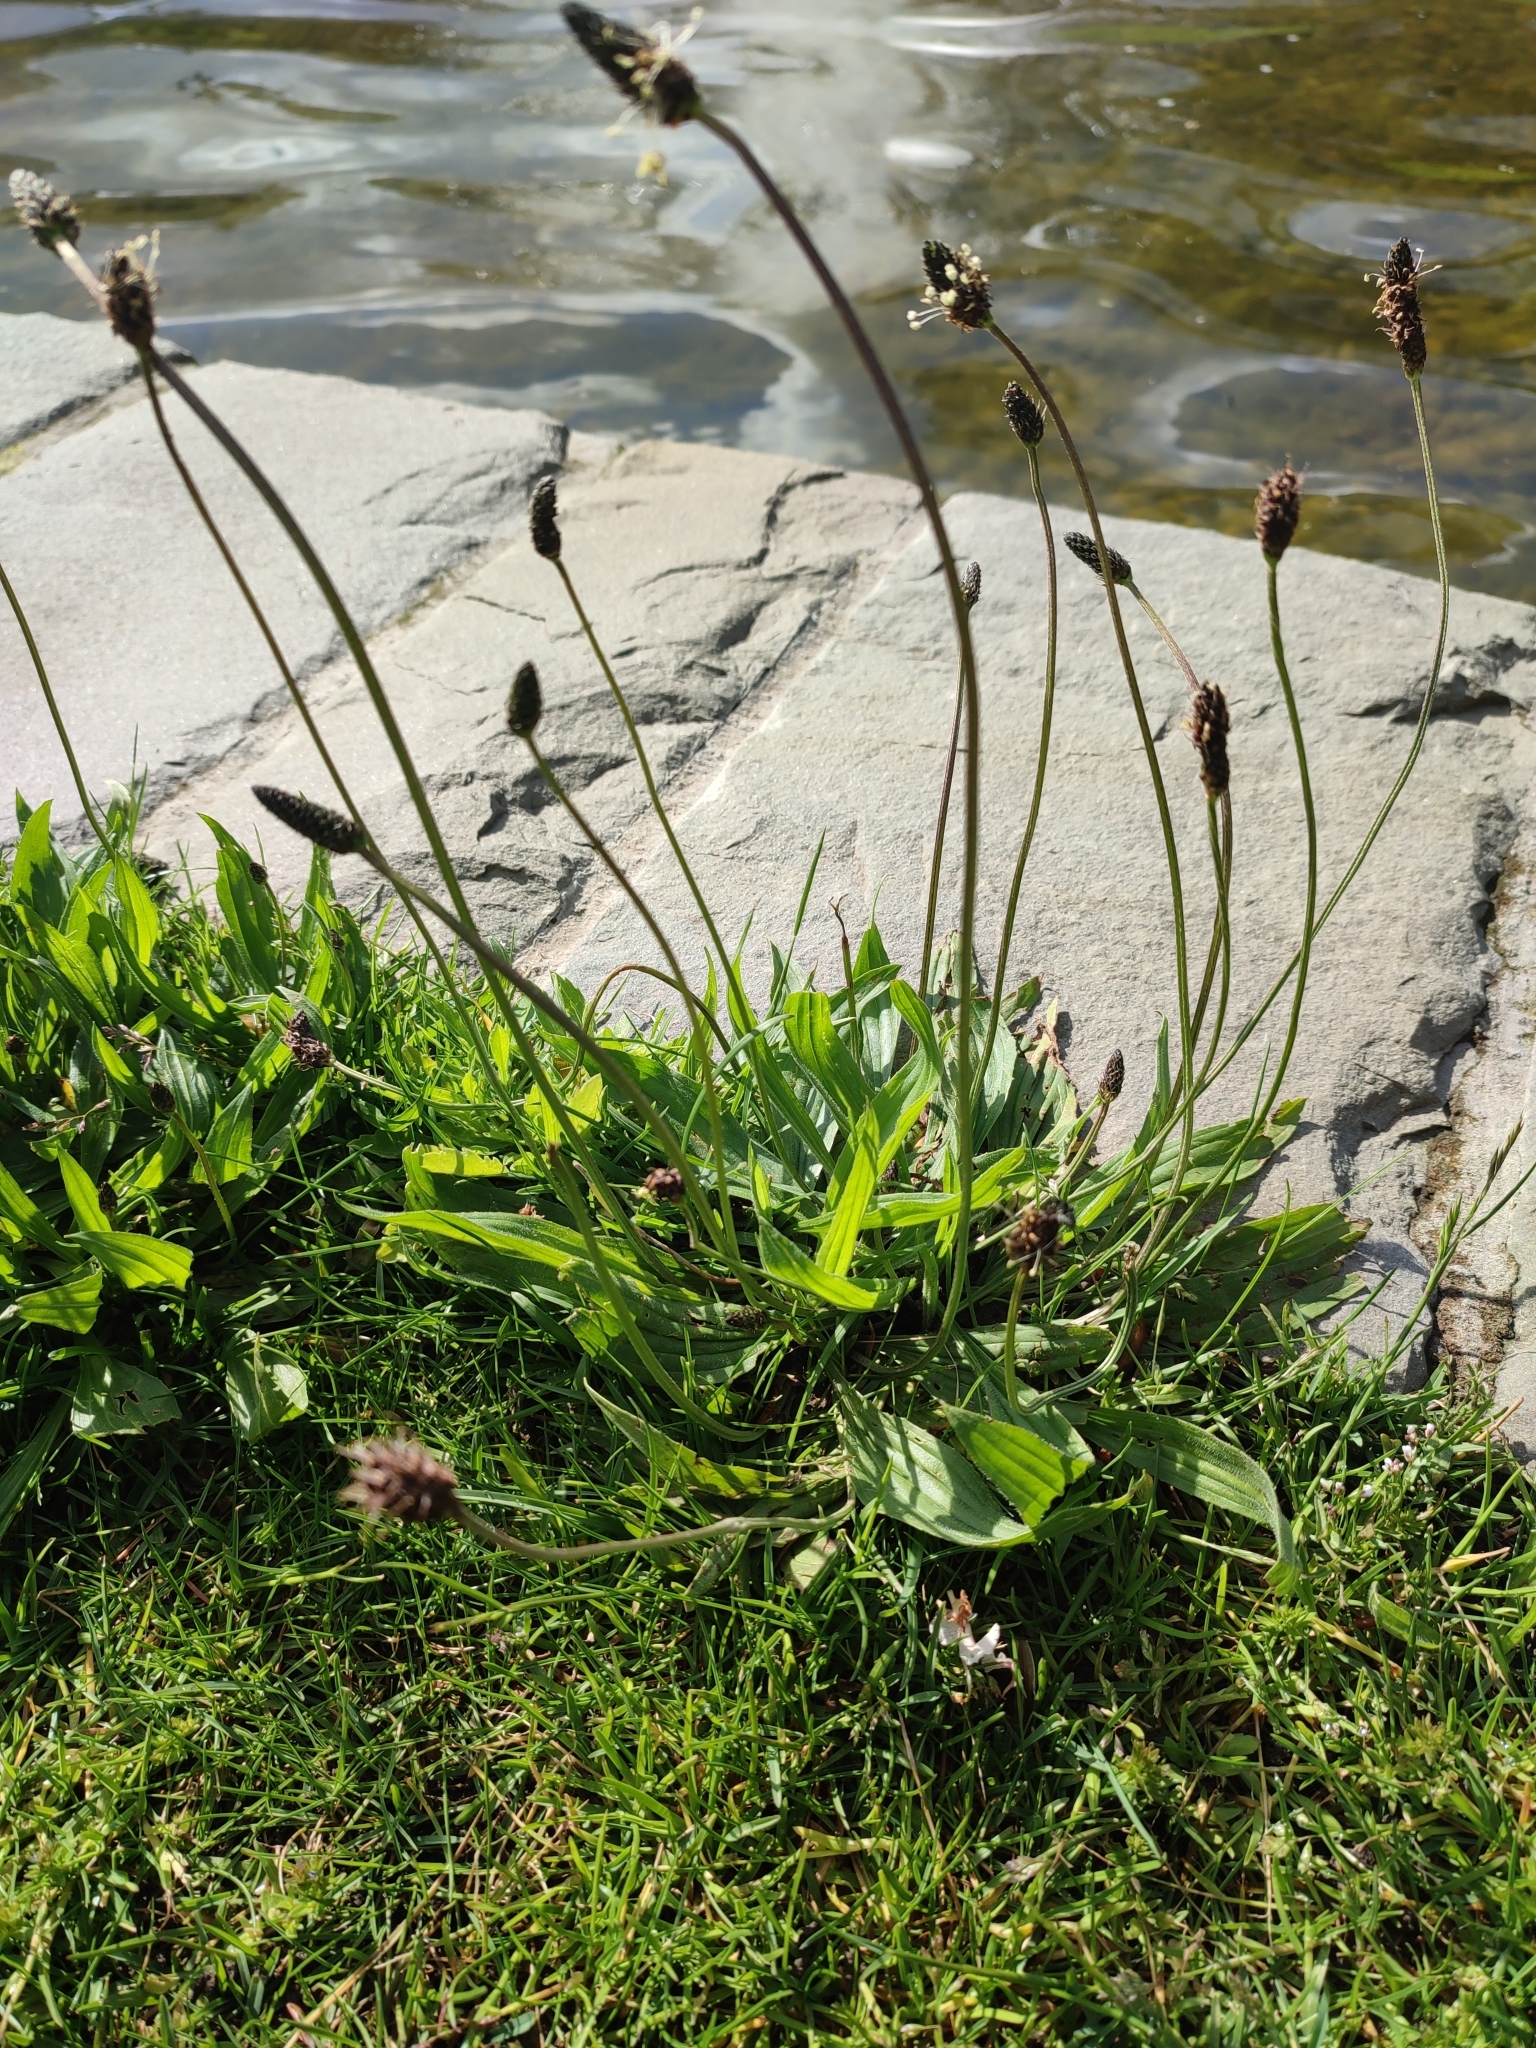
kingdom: Plantae
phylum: Tracheophyta
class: Magnoliopsida
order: Lamiales
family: Plantaginaceae
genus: Plantago
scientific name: Plantago lanceolata
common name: Ribwort plantain
